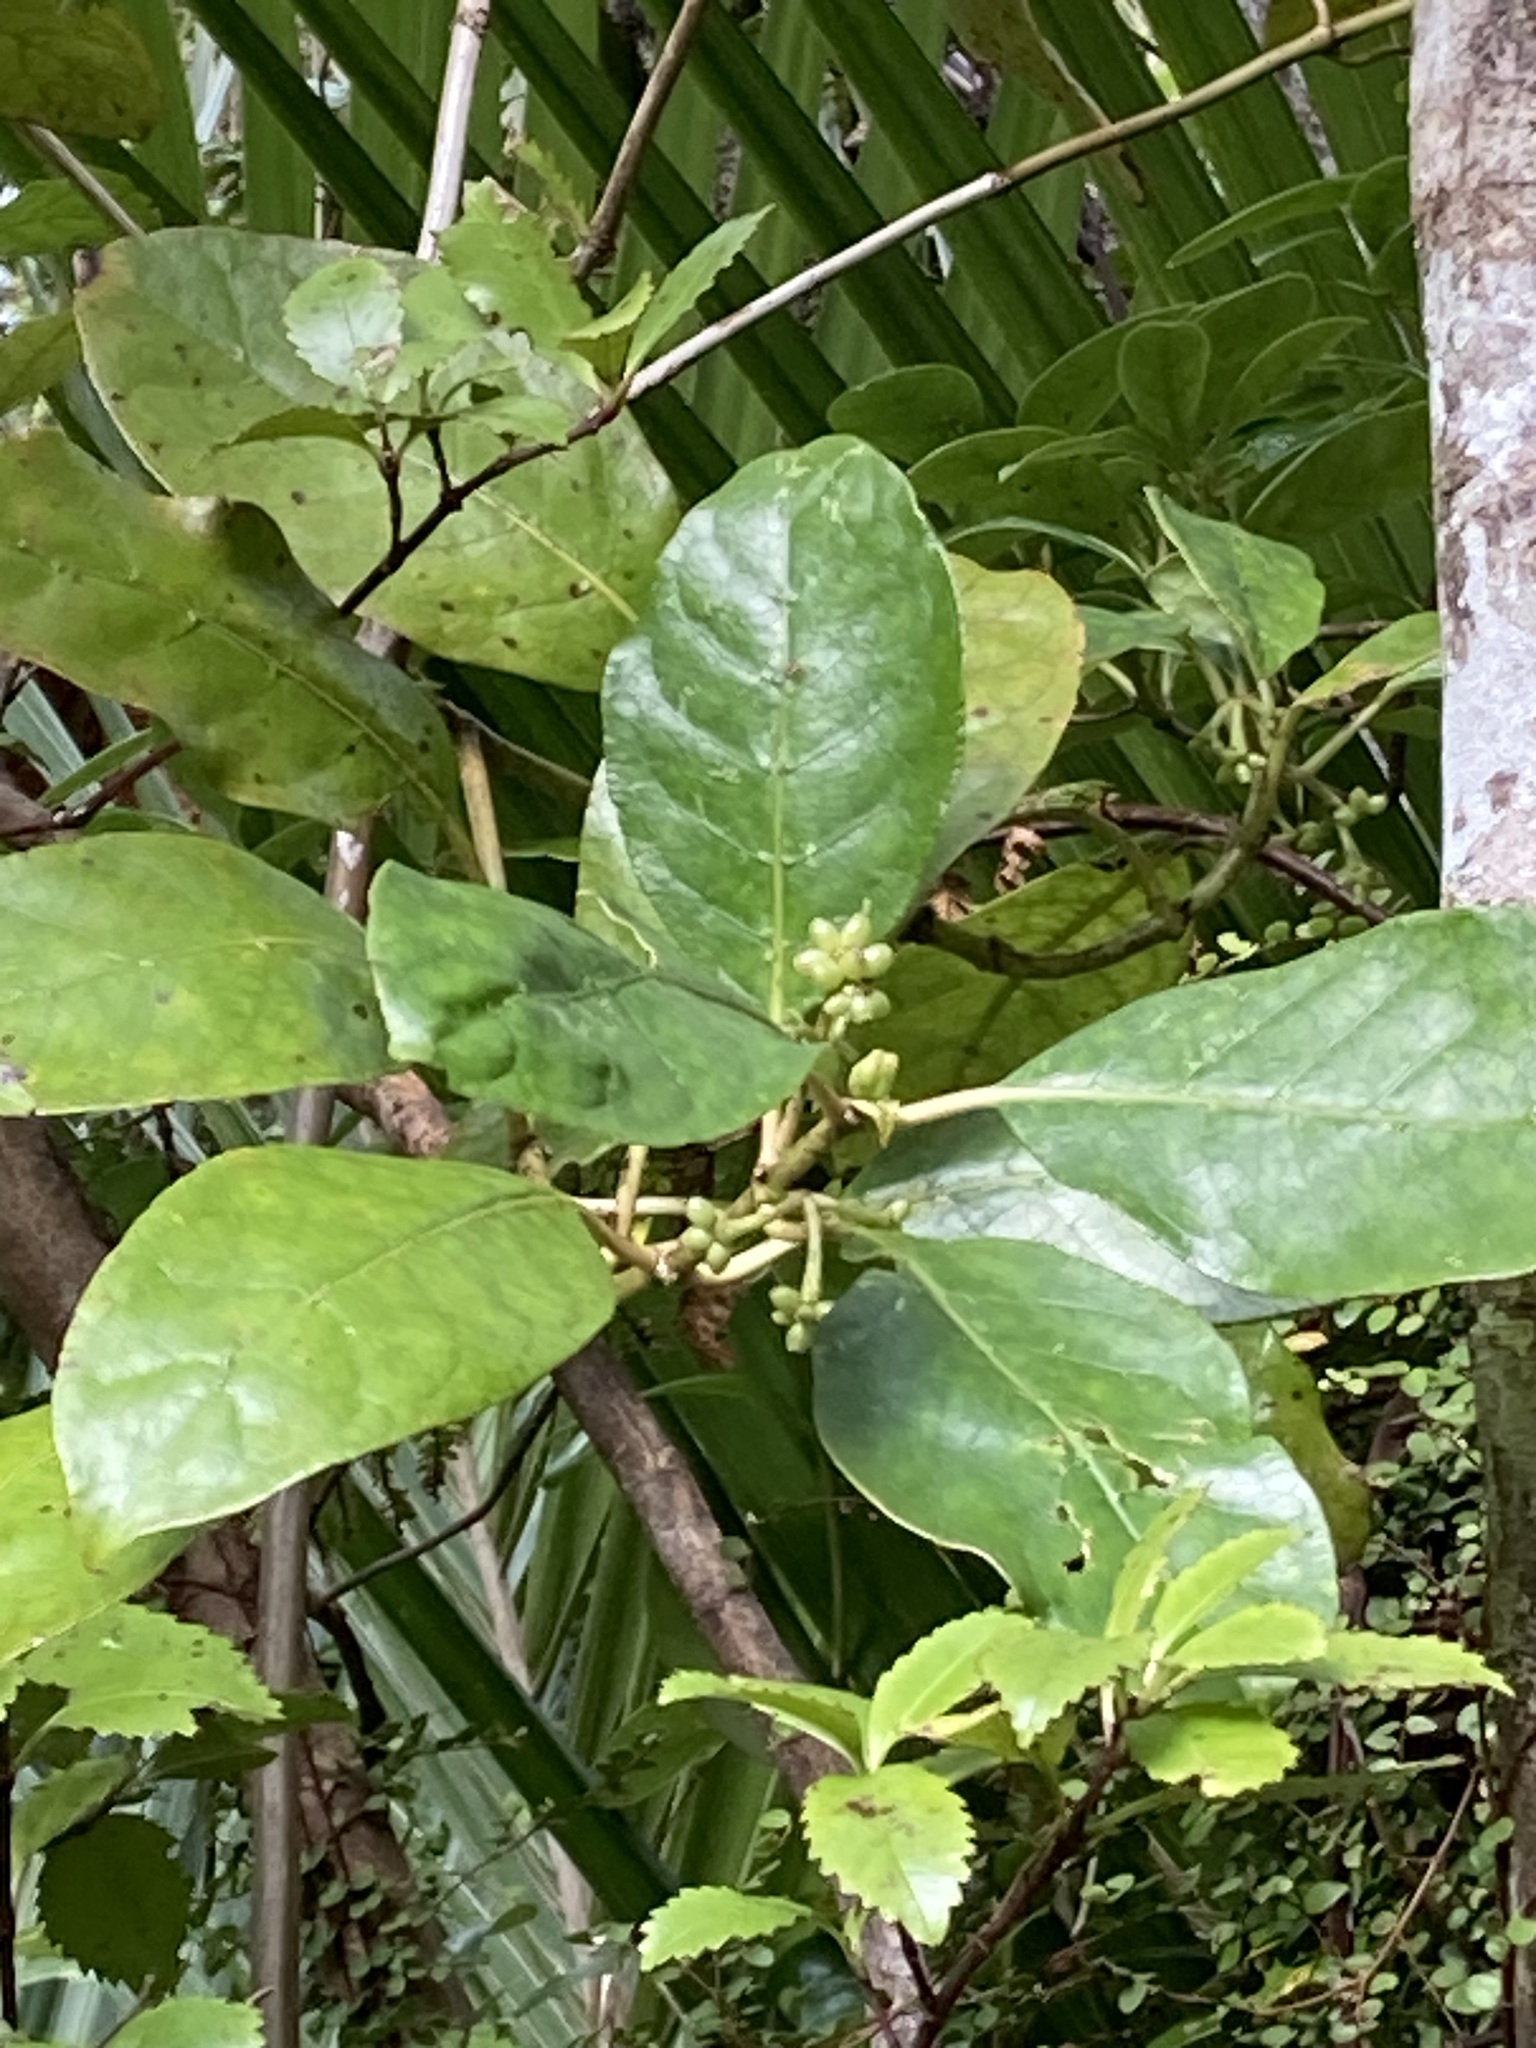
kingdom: Plantae
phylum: Tracheophyta
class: Magnoliopsida
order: Gentianales
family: Rubiaceae
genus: Coprosma
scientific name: Coprosma autumnalis
